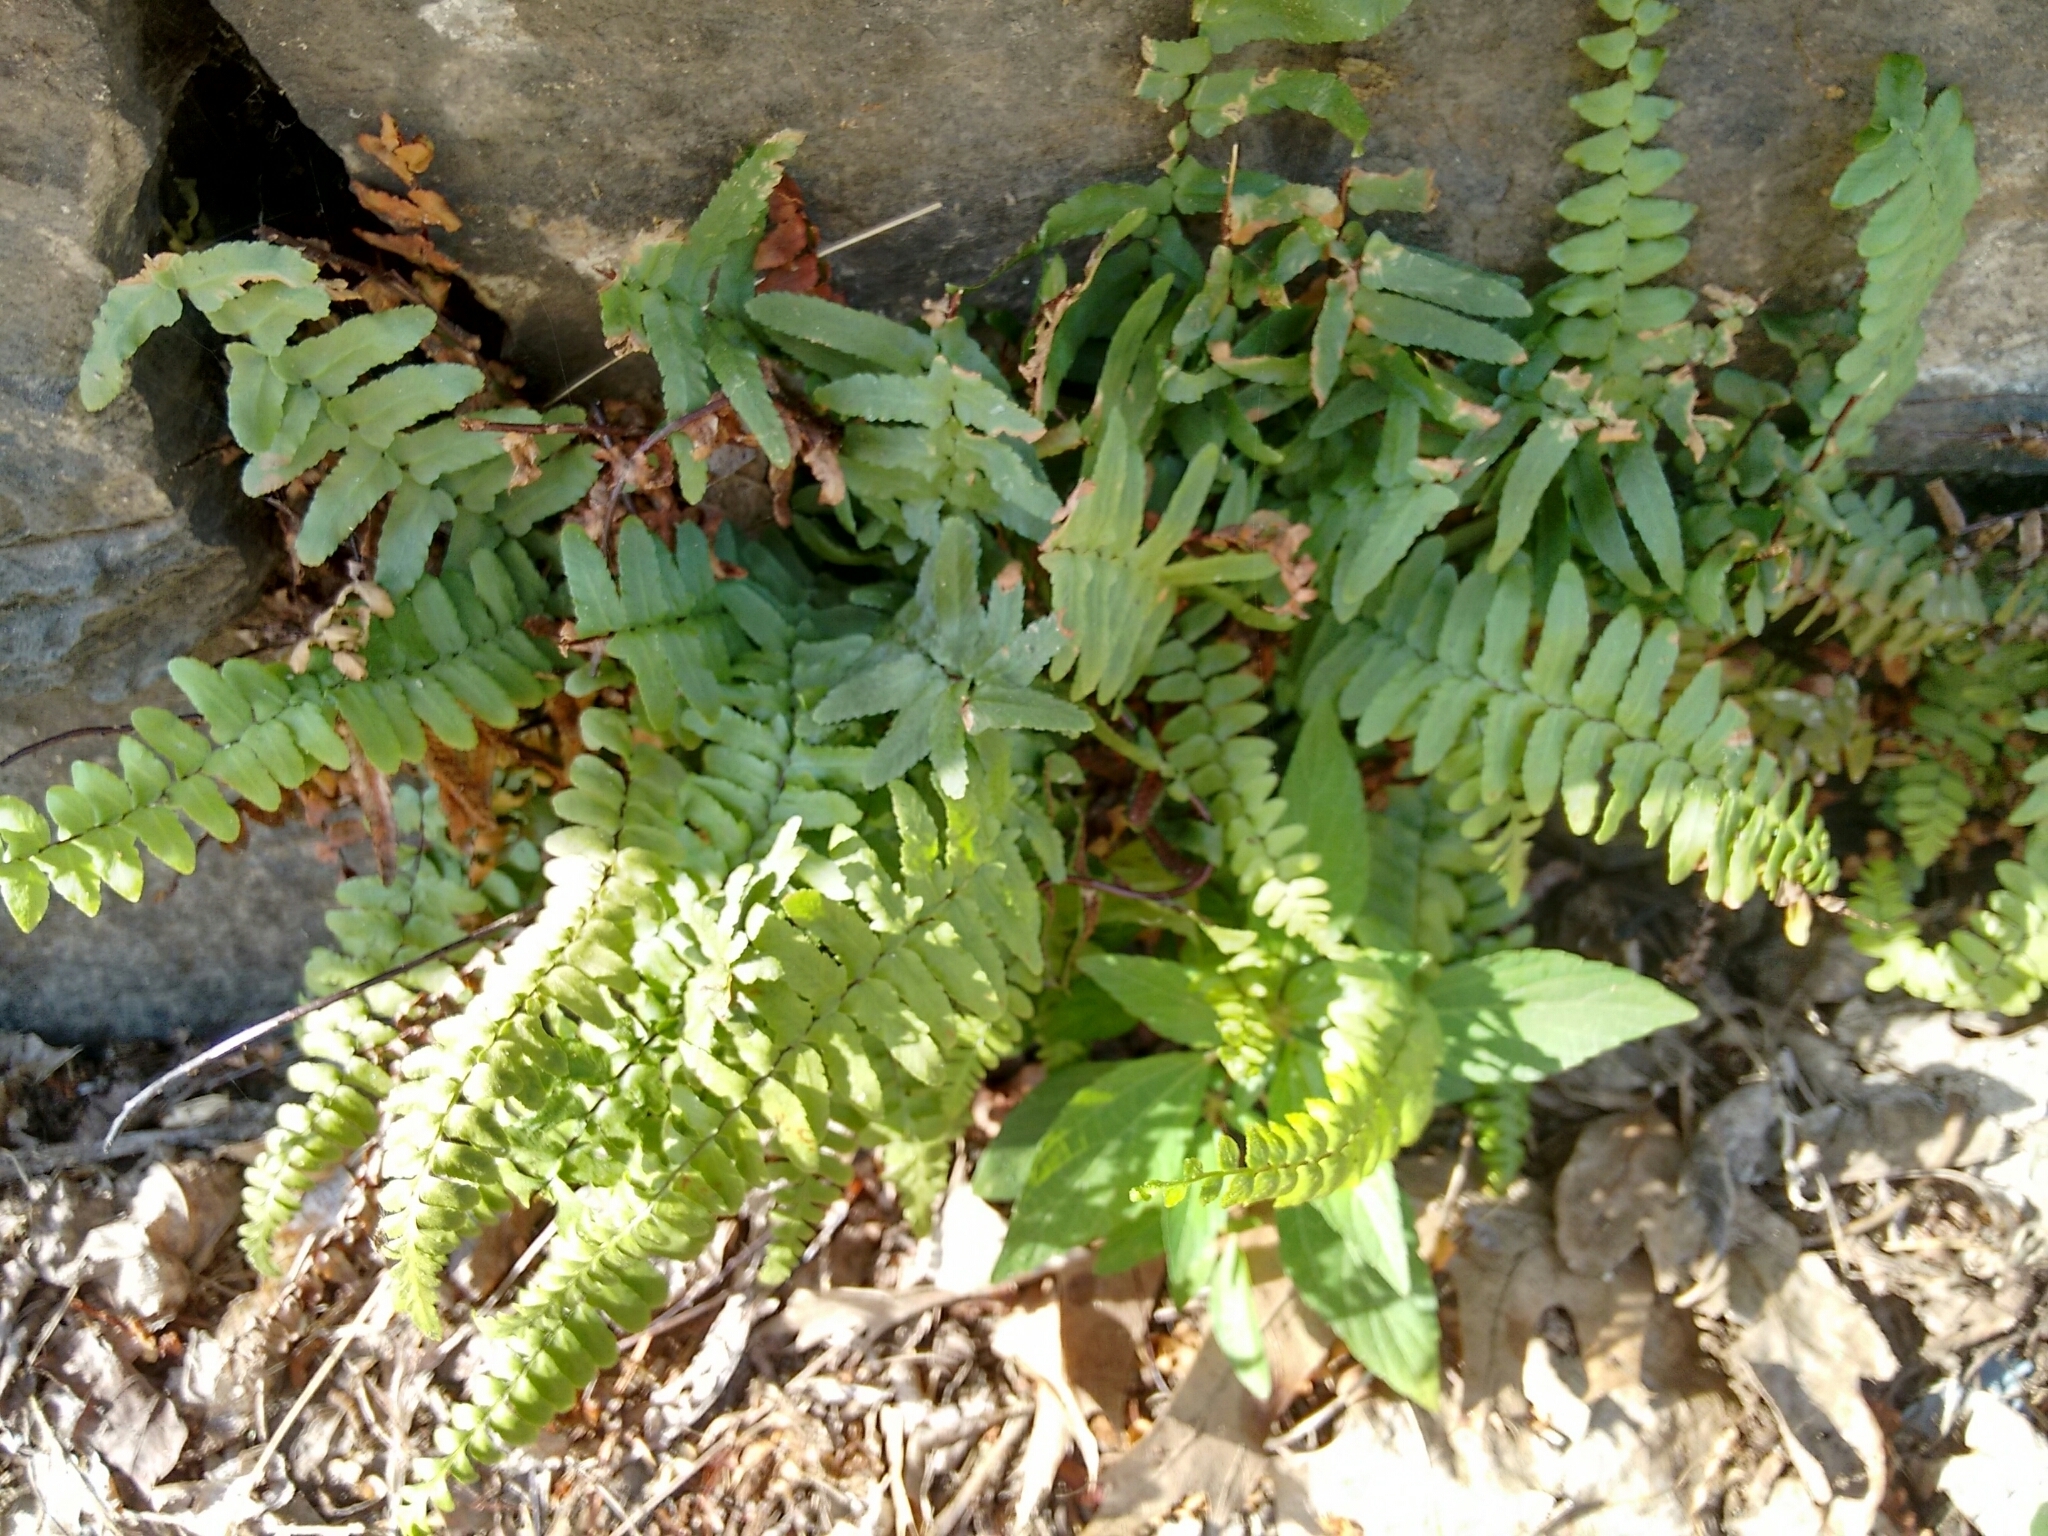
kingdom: Plantae
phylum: Tracheophyta
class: Polypodiopsida
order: Polypodiales
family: Aspleniaceae
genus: Asplenium
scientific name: Asplenium platyneuron
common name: Ebony spleenwort
